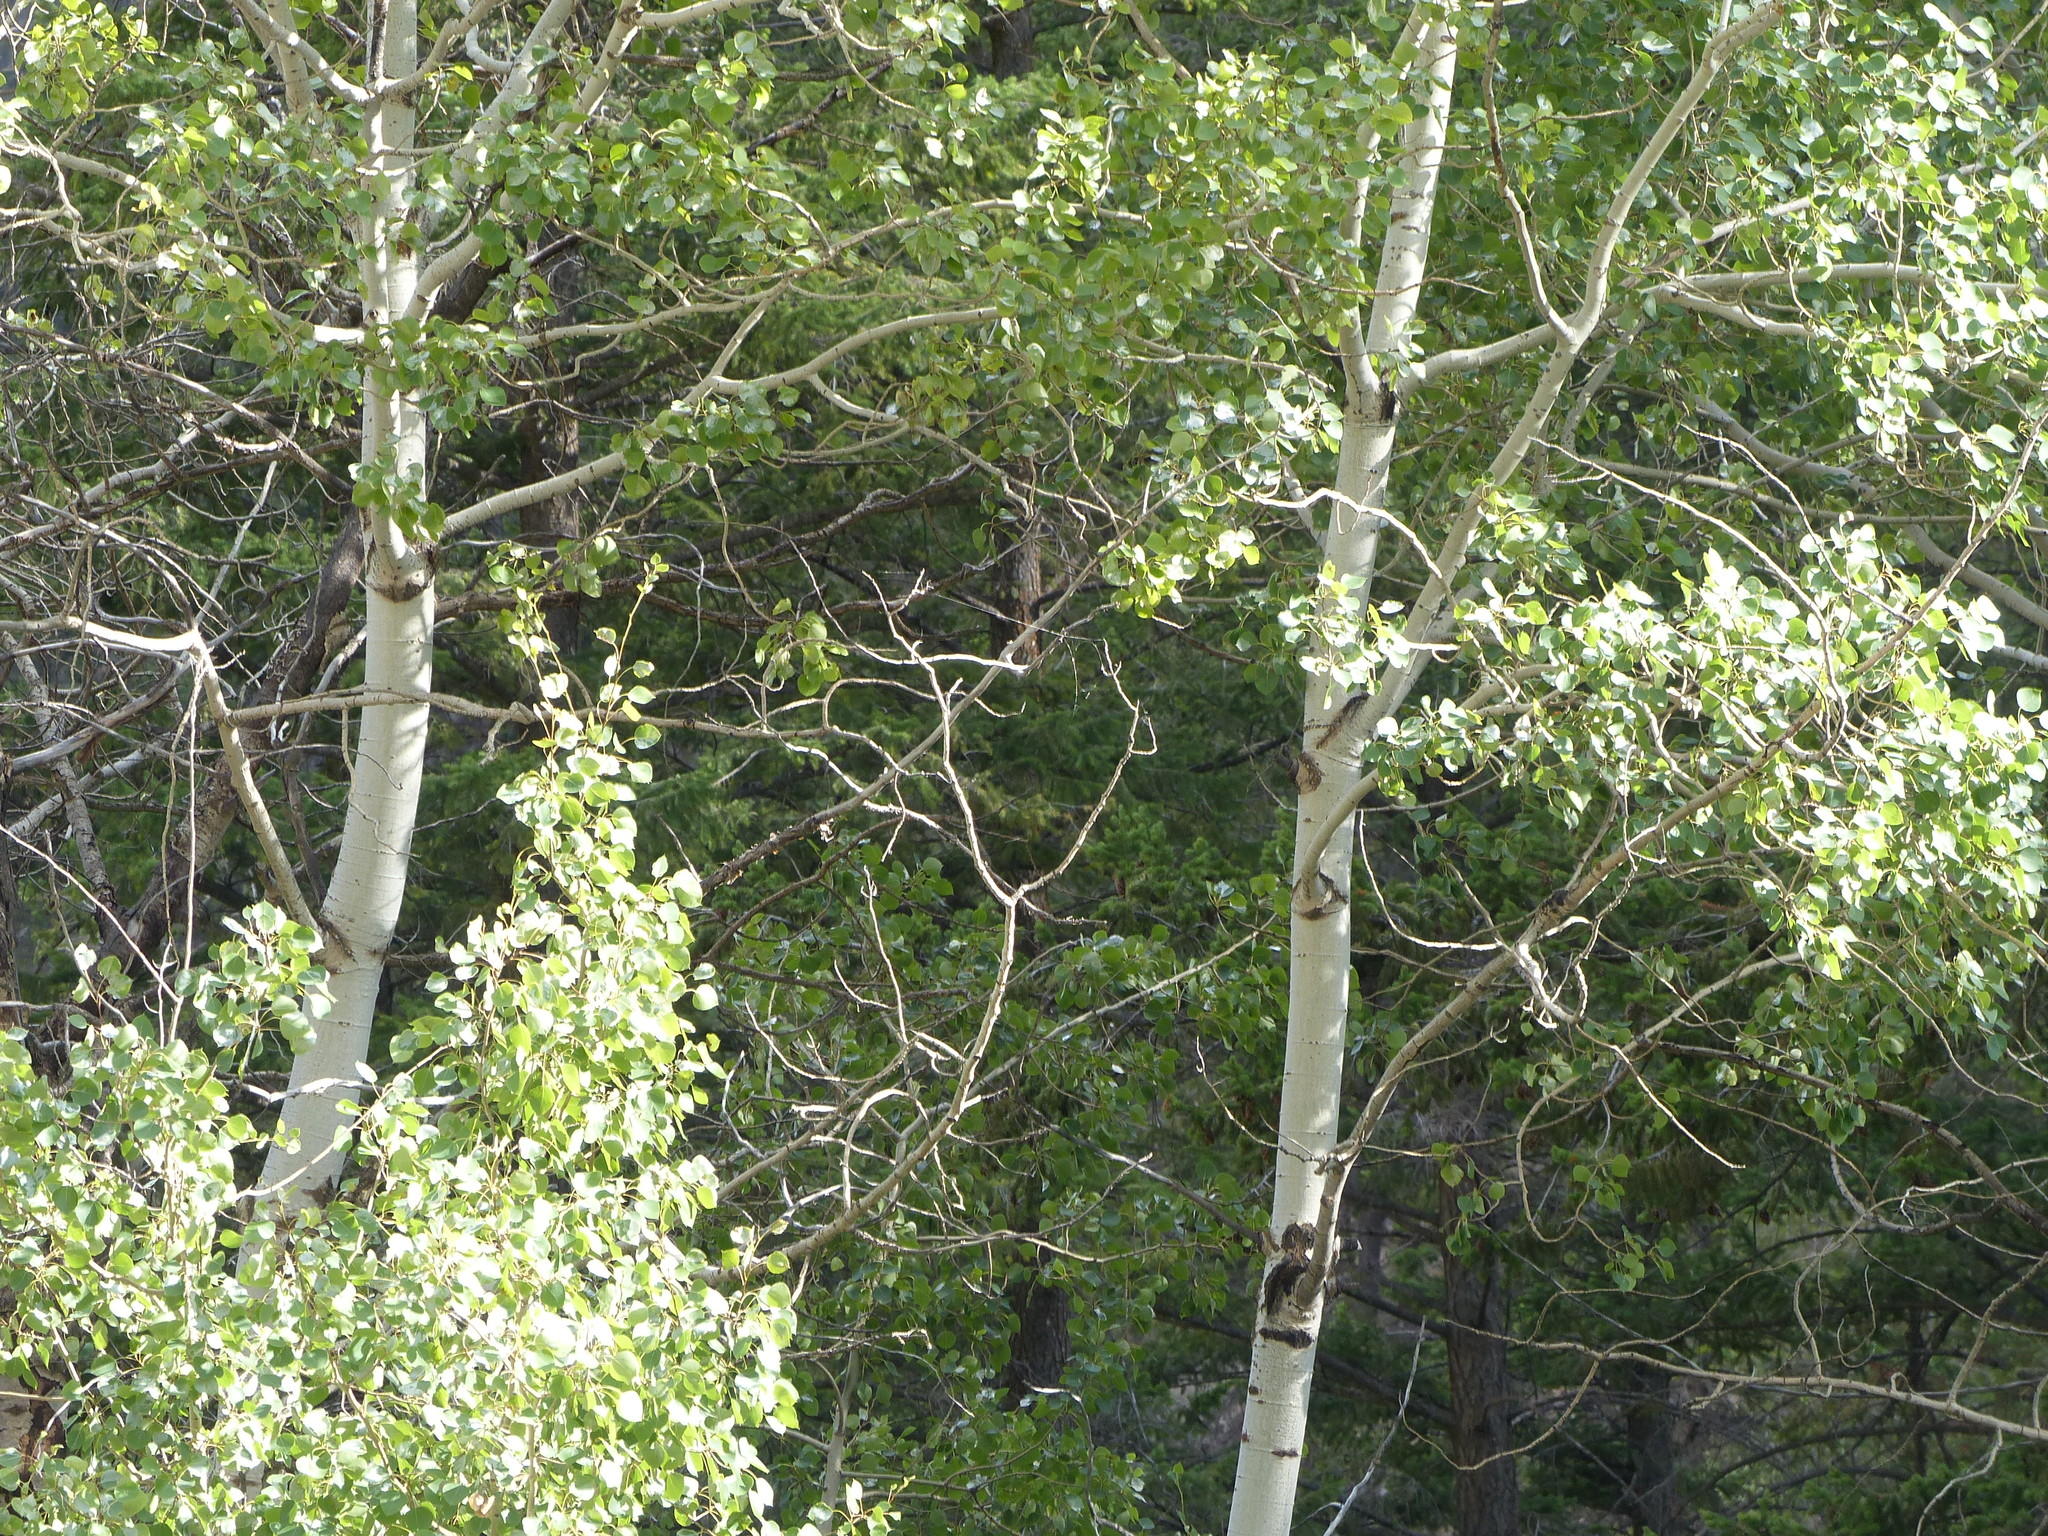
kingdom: Plantae
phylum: Tracheophyta
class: Magnoliopsida
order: Malpighiales
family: Salicaceae
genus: Populus
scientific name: Populus tremuloides
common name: Quaking aspen
